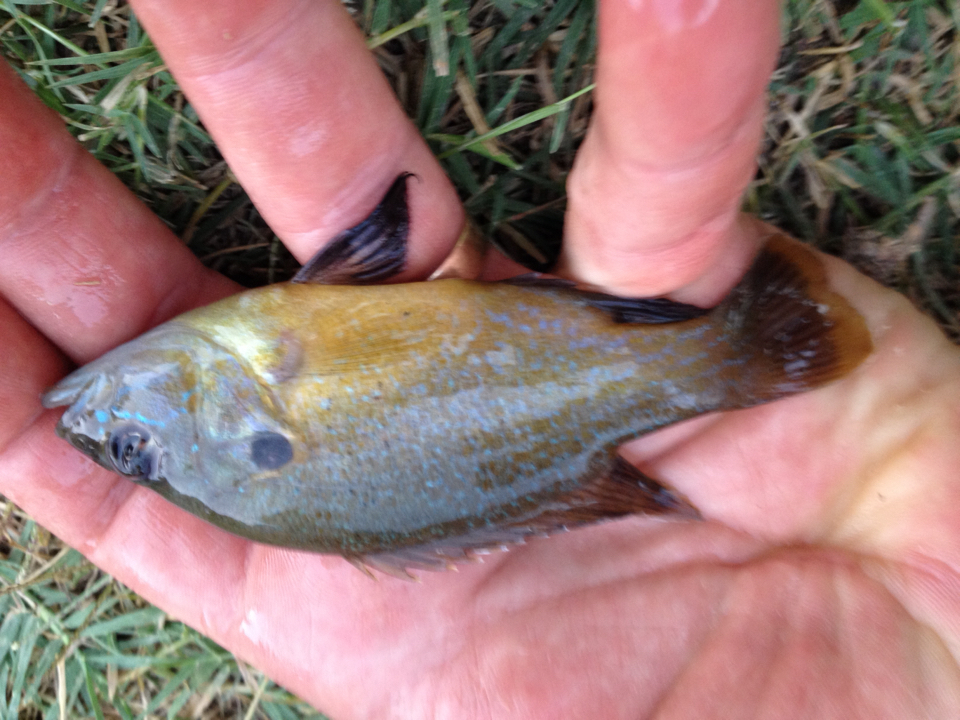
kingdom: Animalia
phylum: Chordata
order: Perciformes
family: Centrarchidae
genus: Lepomis
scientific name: Lepomis cyanellus
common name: Green sunfish
